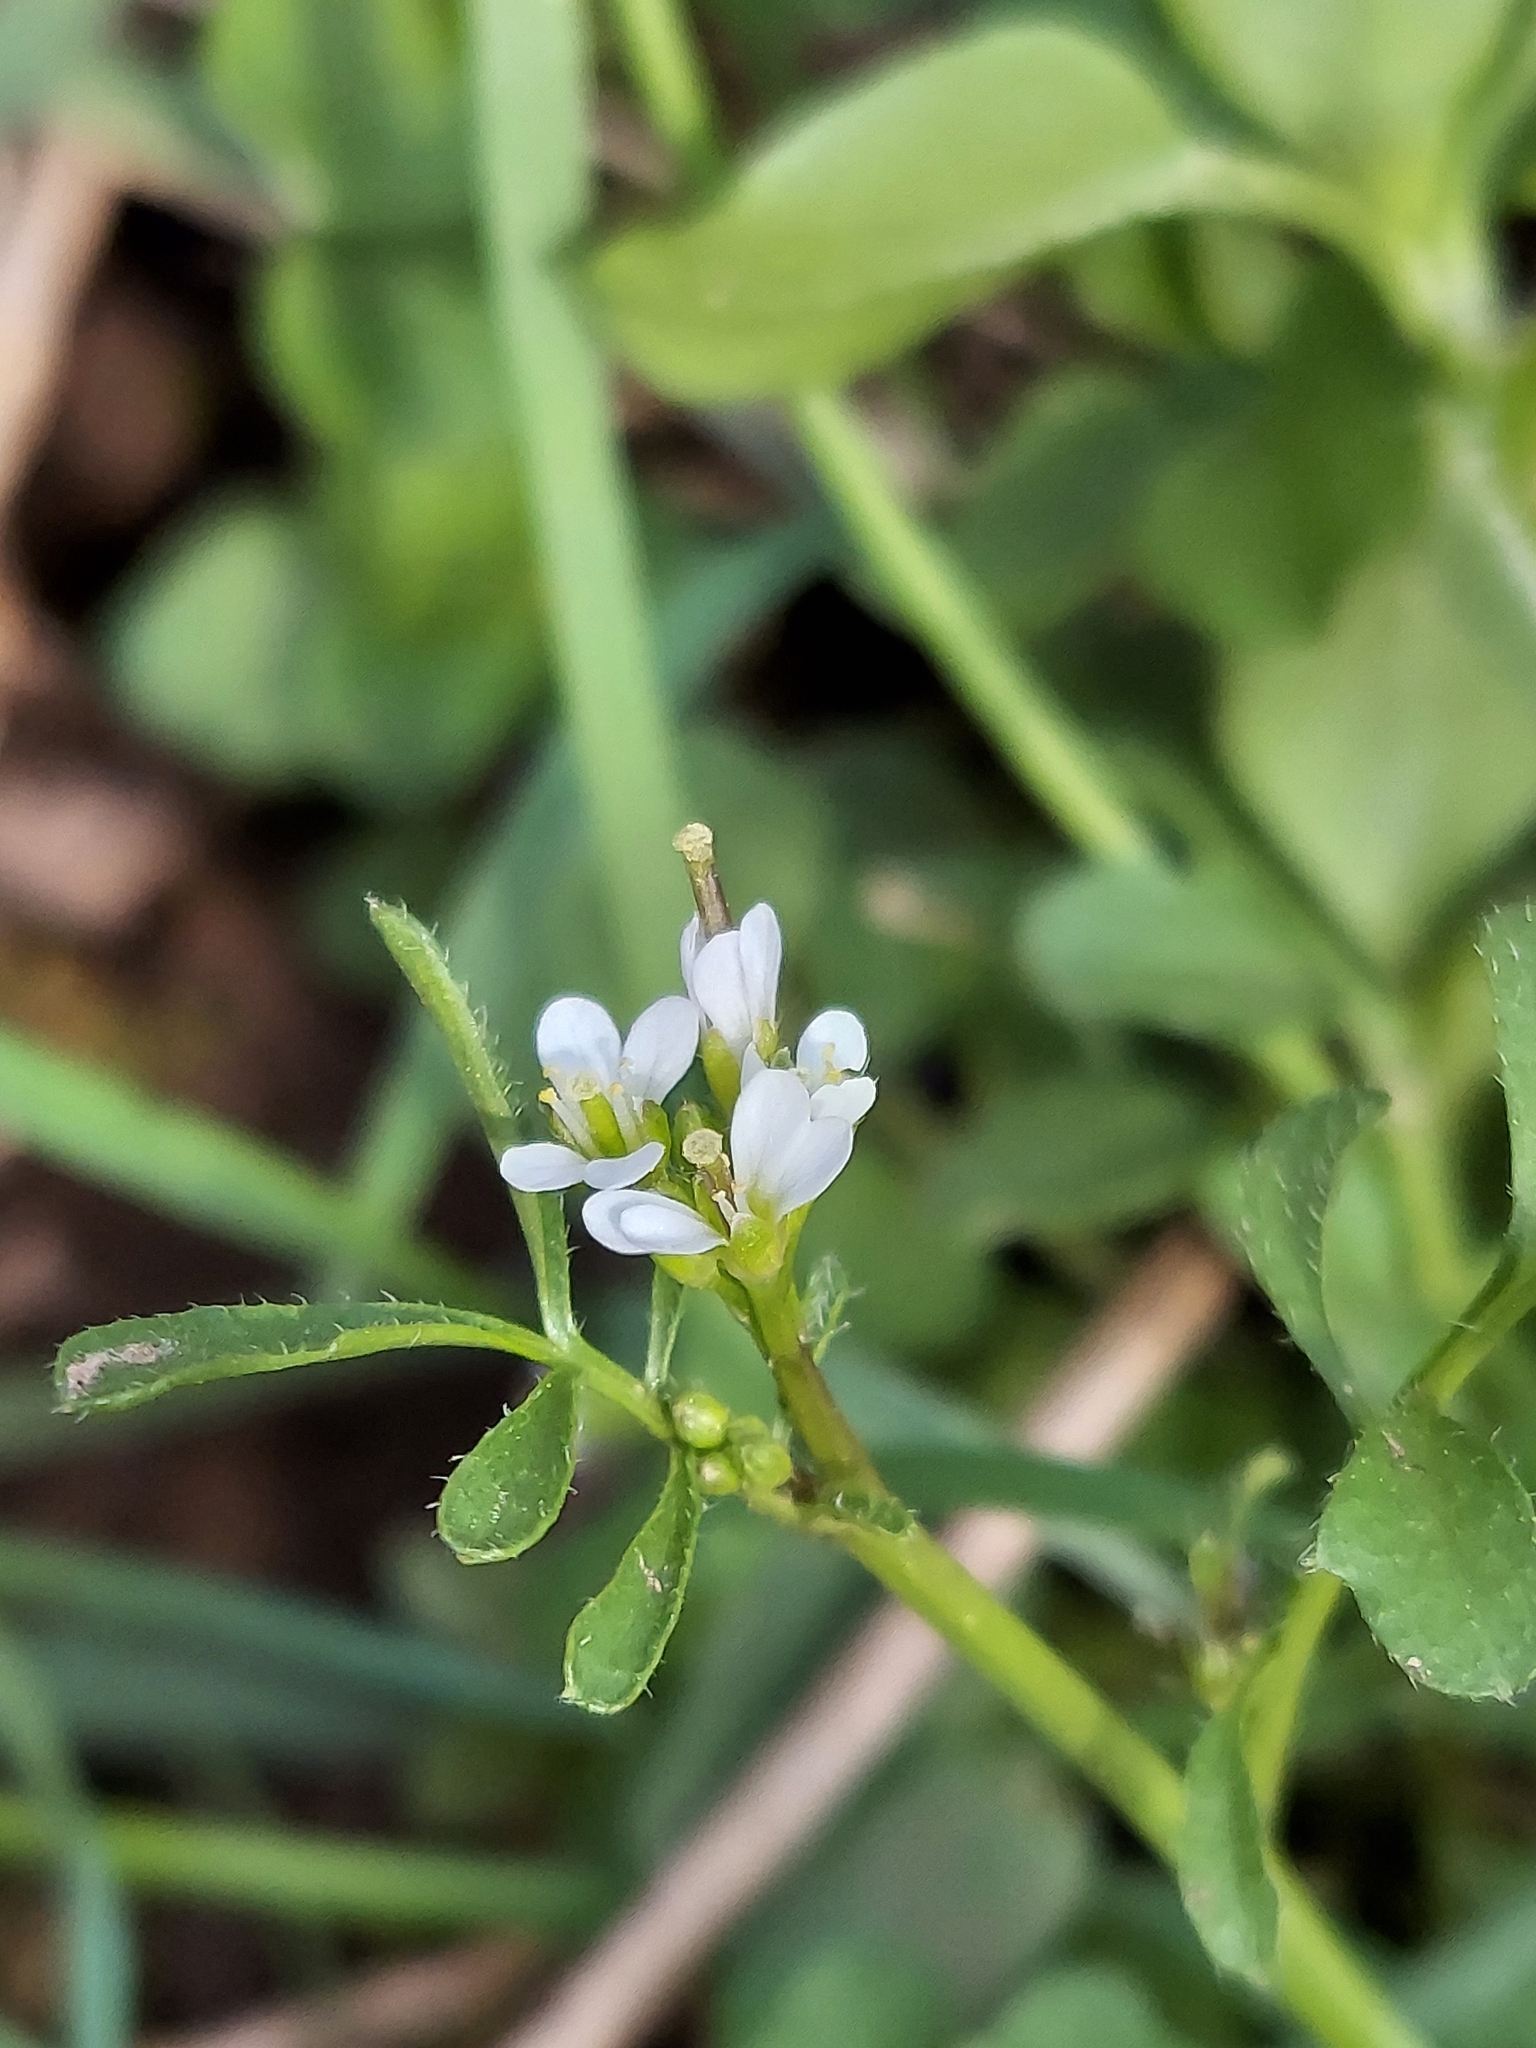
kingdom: Plantae
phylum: Tracheophyta
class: Magnoliopsida
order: Brassicales
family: Brassicaceae
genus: Cardamine
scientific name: Cardamine hirsuta
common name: Hairy bittercress
